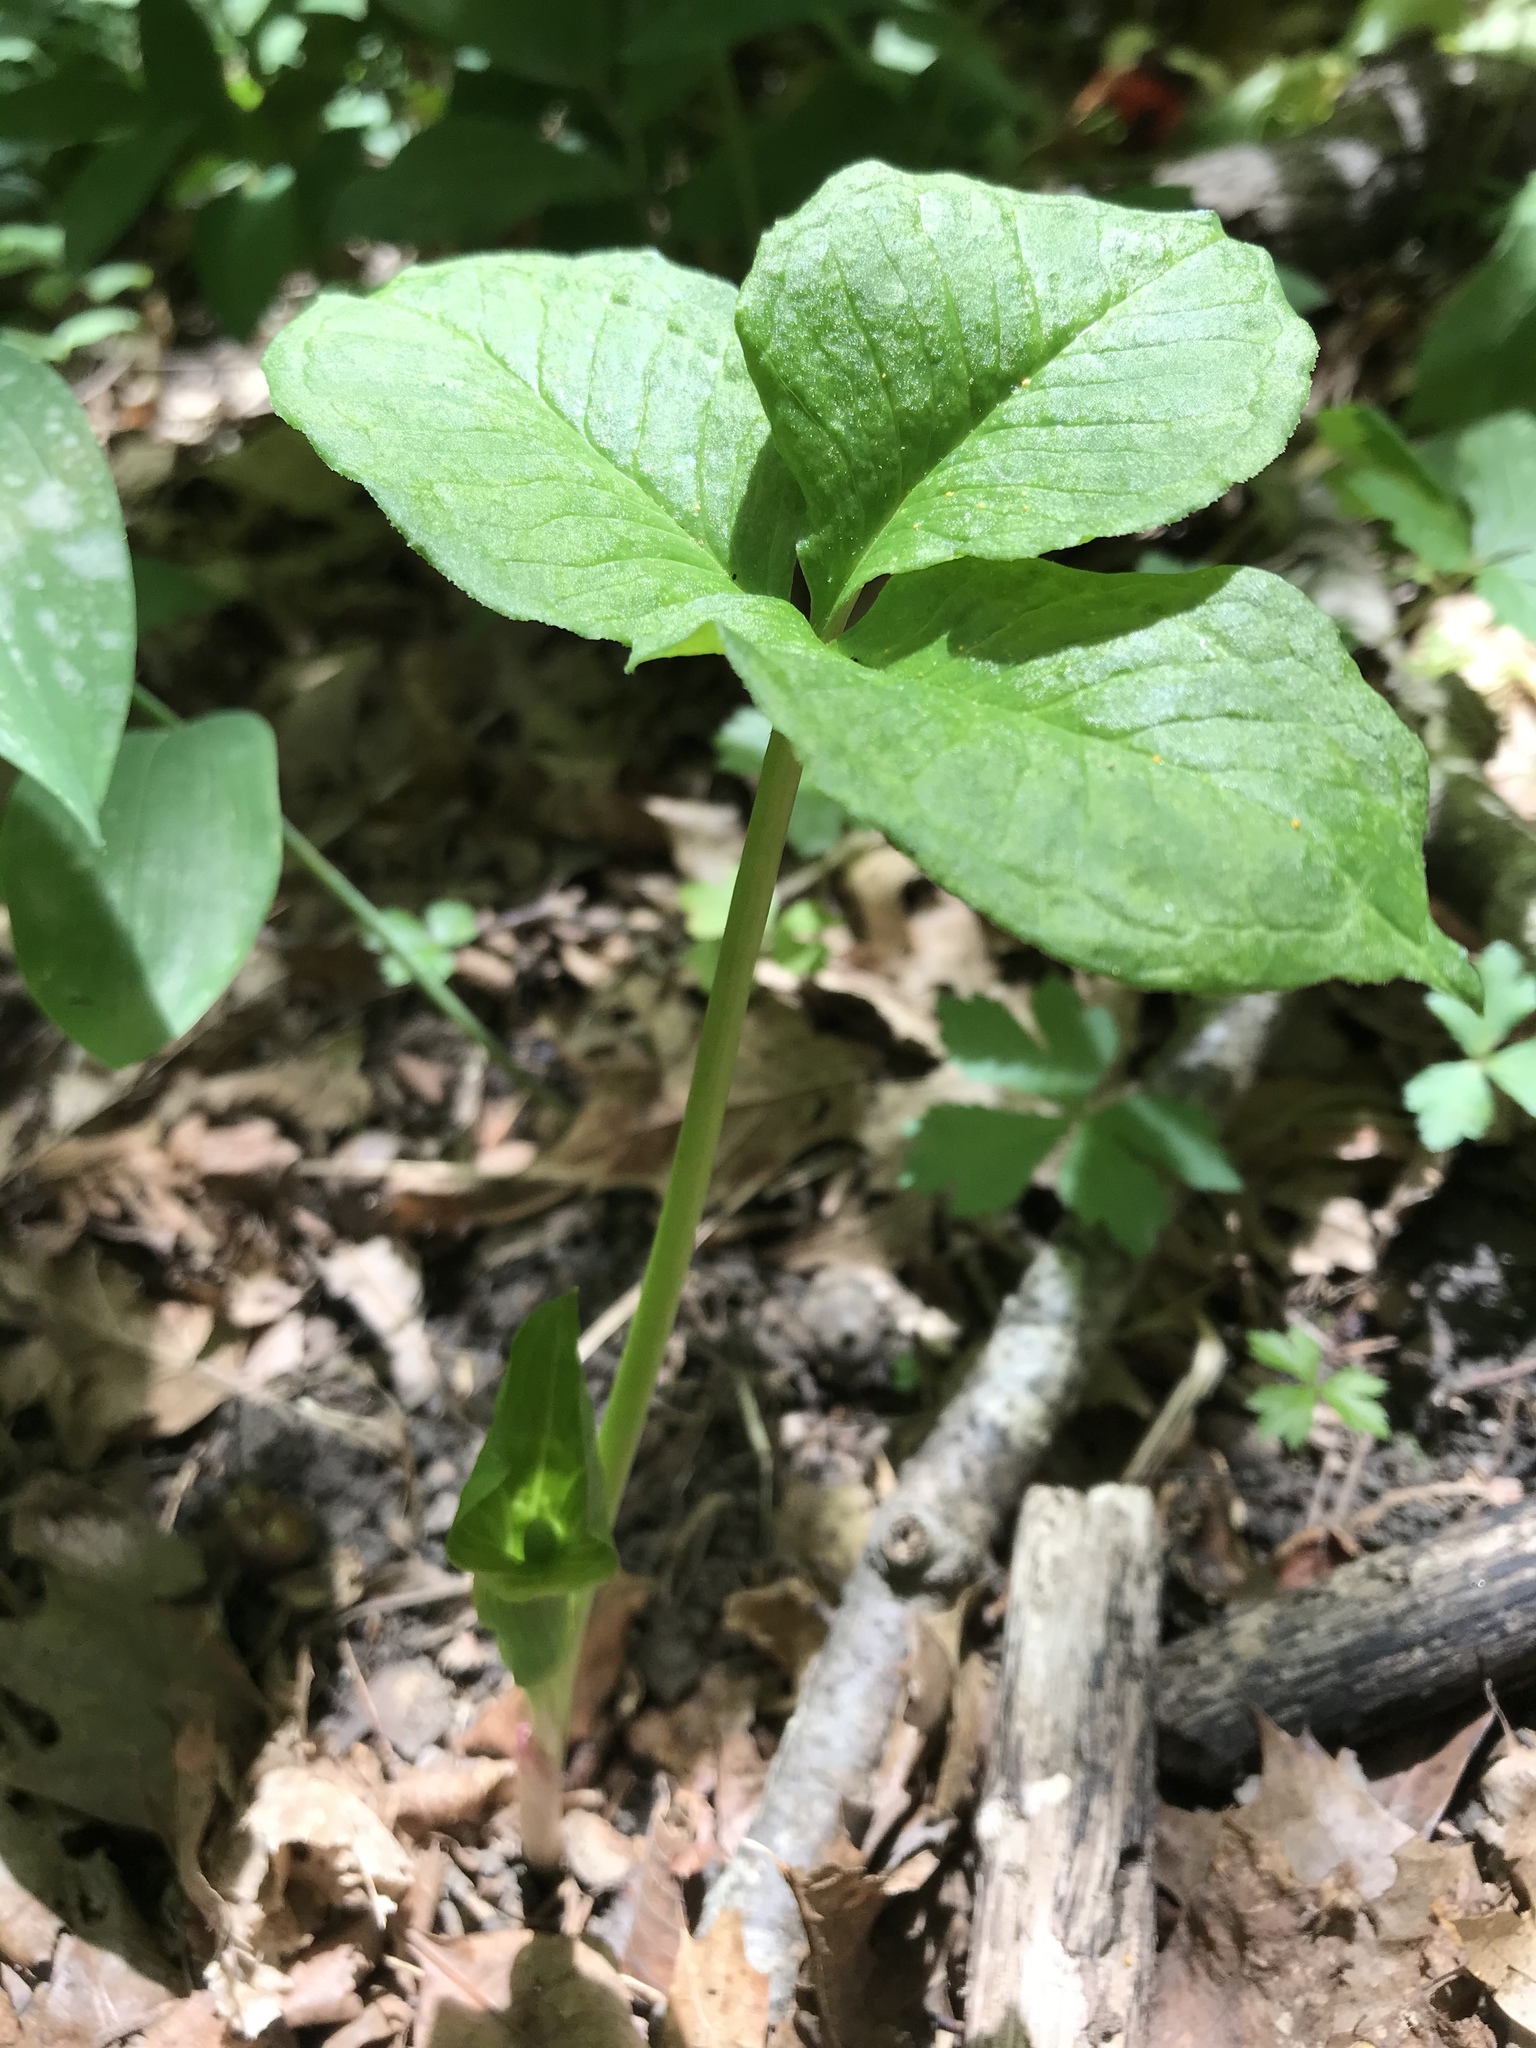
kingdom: Plantae
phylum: Tracheophyta
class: Liliopsida
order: Alismatales
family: Araceae
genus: Arisaema
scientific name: Arisaema triphyllum
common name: Jack-in-the-pulpit
